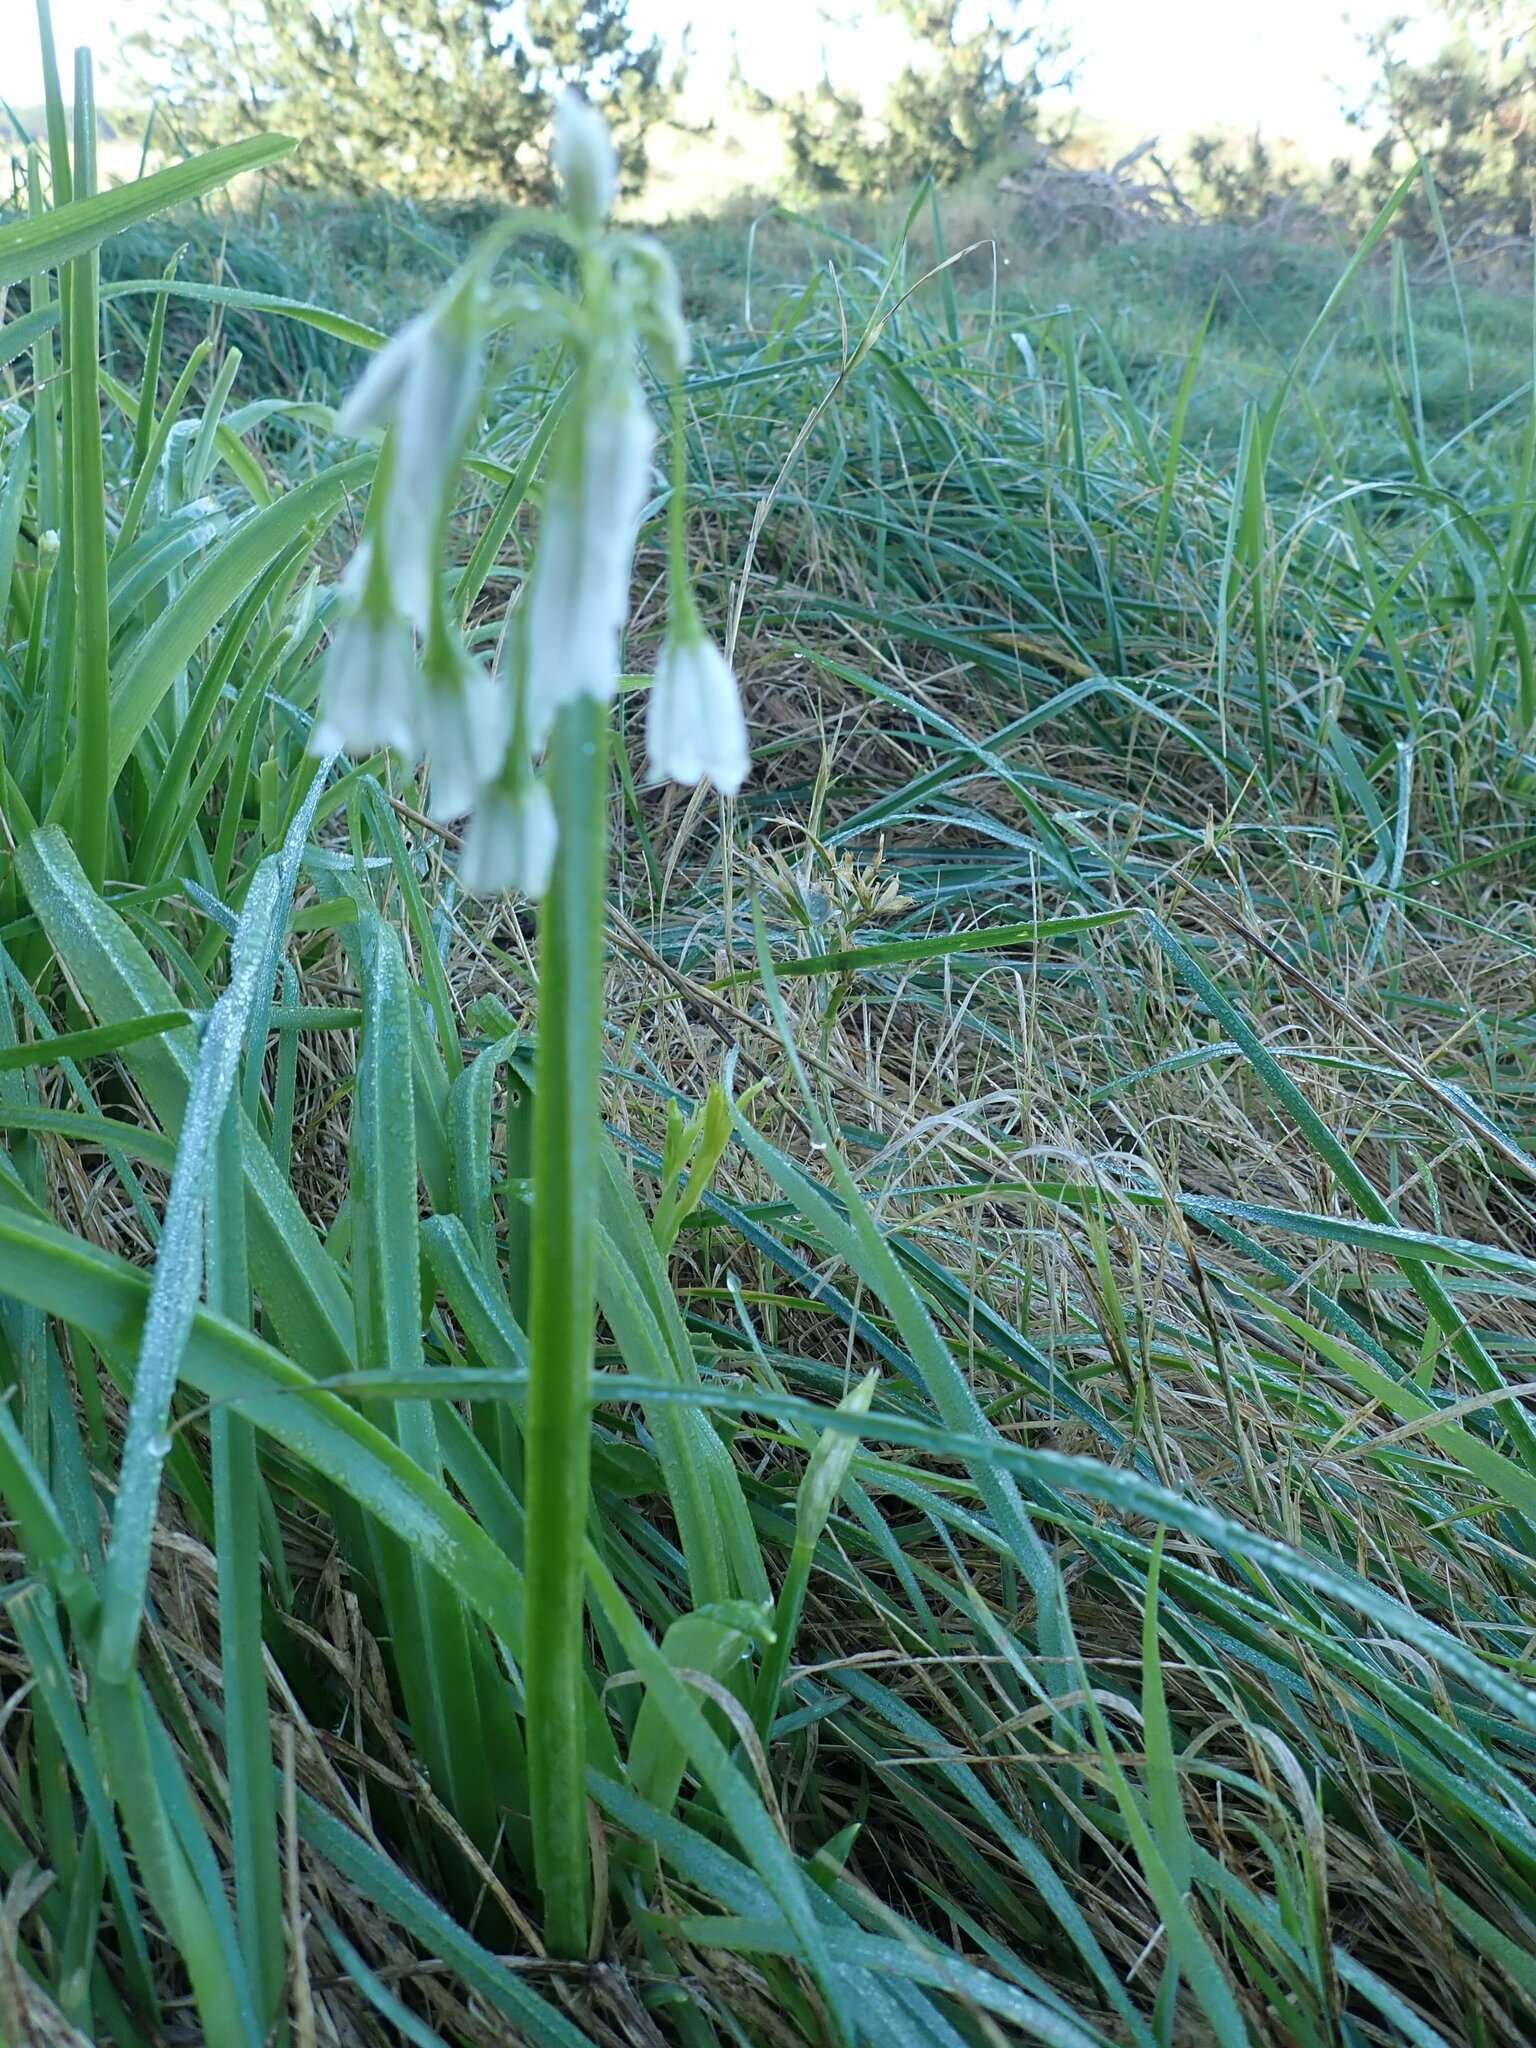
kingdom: Plantae
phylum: Tracheophyta
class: Liliopsida
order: Asparagales
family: Amaryllidaceae
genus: Allium
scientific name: Allium triquetrum
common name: Three-cornered garlic
